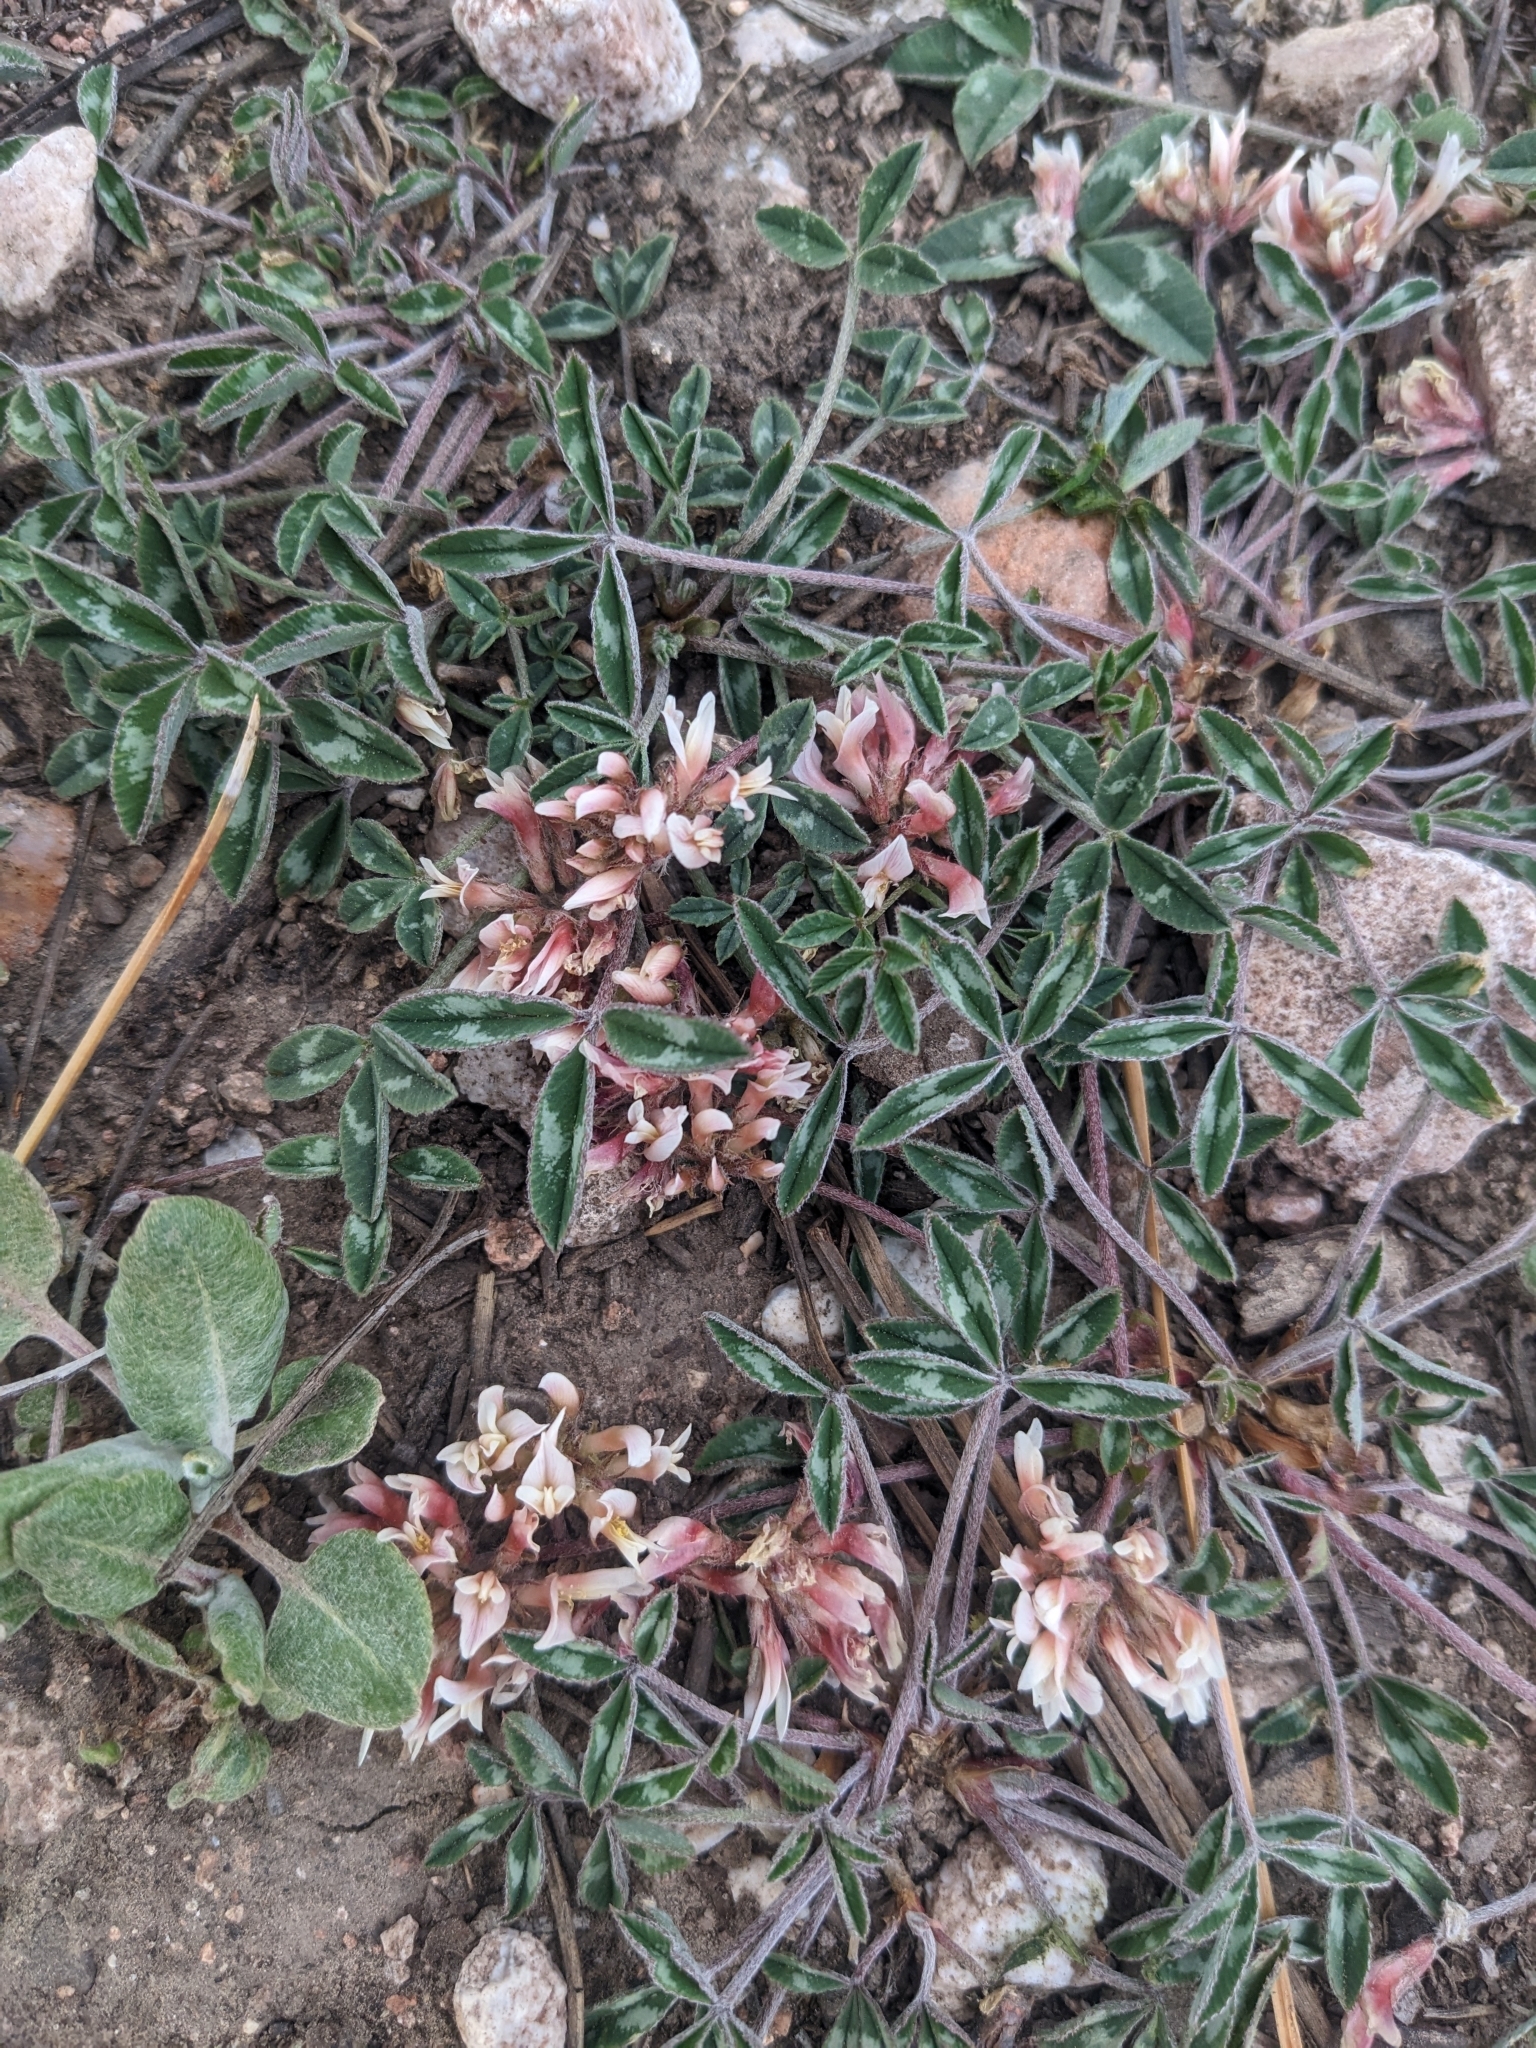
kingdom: Plantae
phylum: Tracheophyta
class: Magnoliopsida
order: Fabales
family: Fabaceae
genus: Trifolium
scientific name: Trifolium gymnocarpon
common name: Tufted clover
